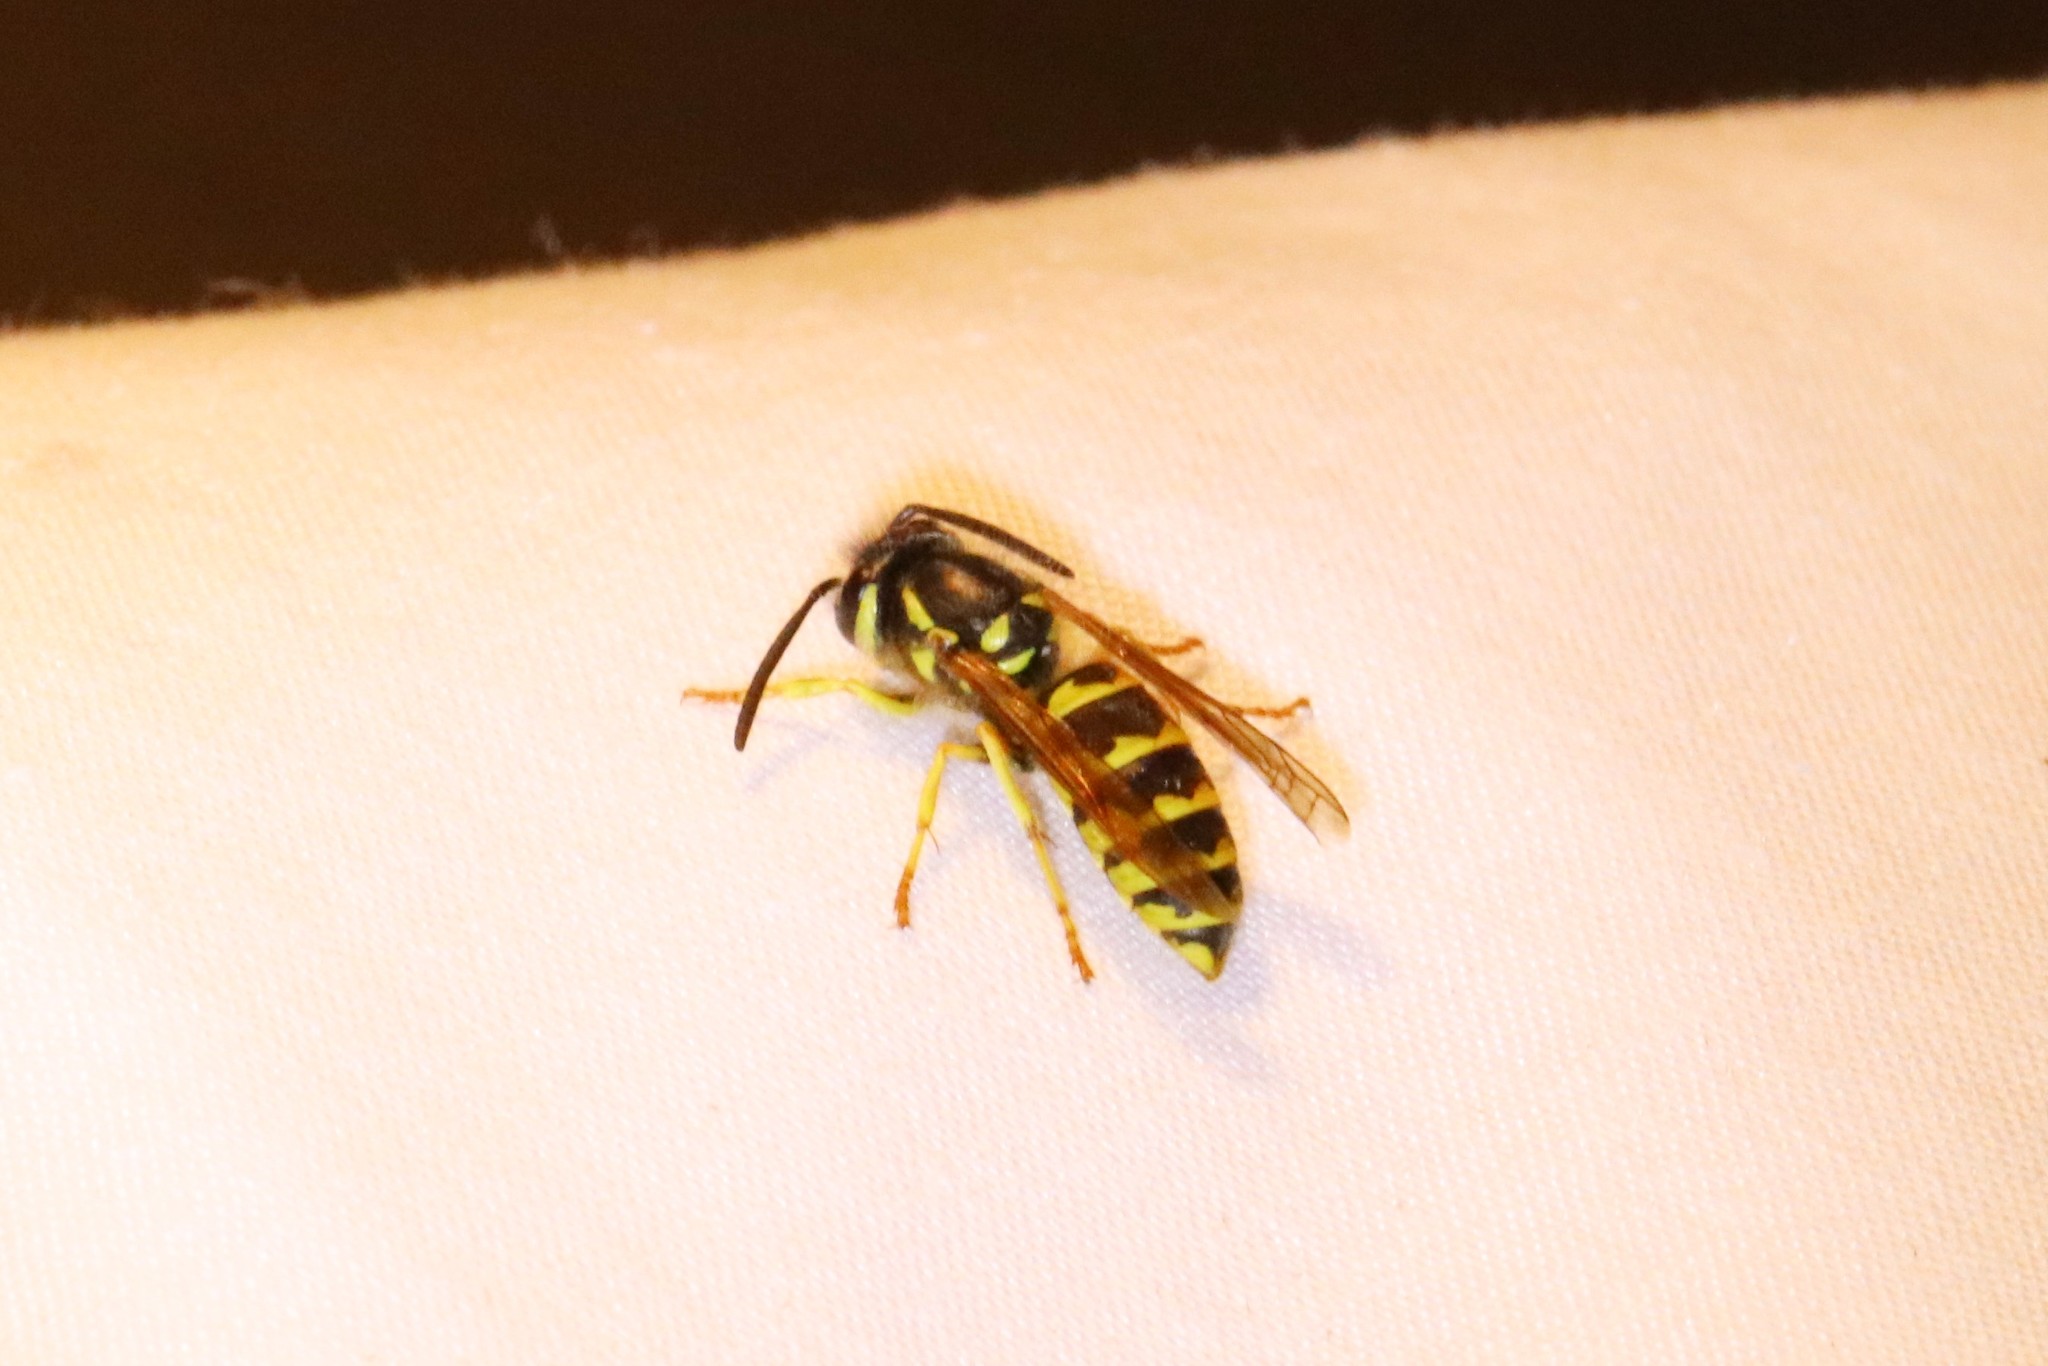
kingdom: Animalia
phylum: Arthropoda
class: Insecta
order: Hymenoptera
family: Vespidae
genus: Vespula
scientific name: Vespula flavopilosa
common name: Downy yellowjacket
